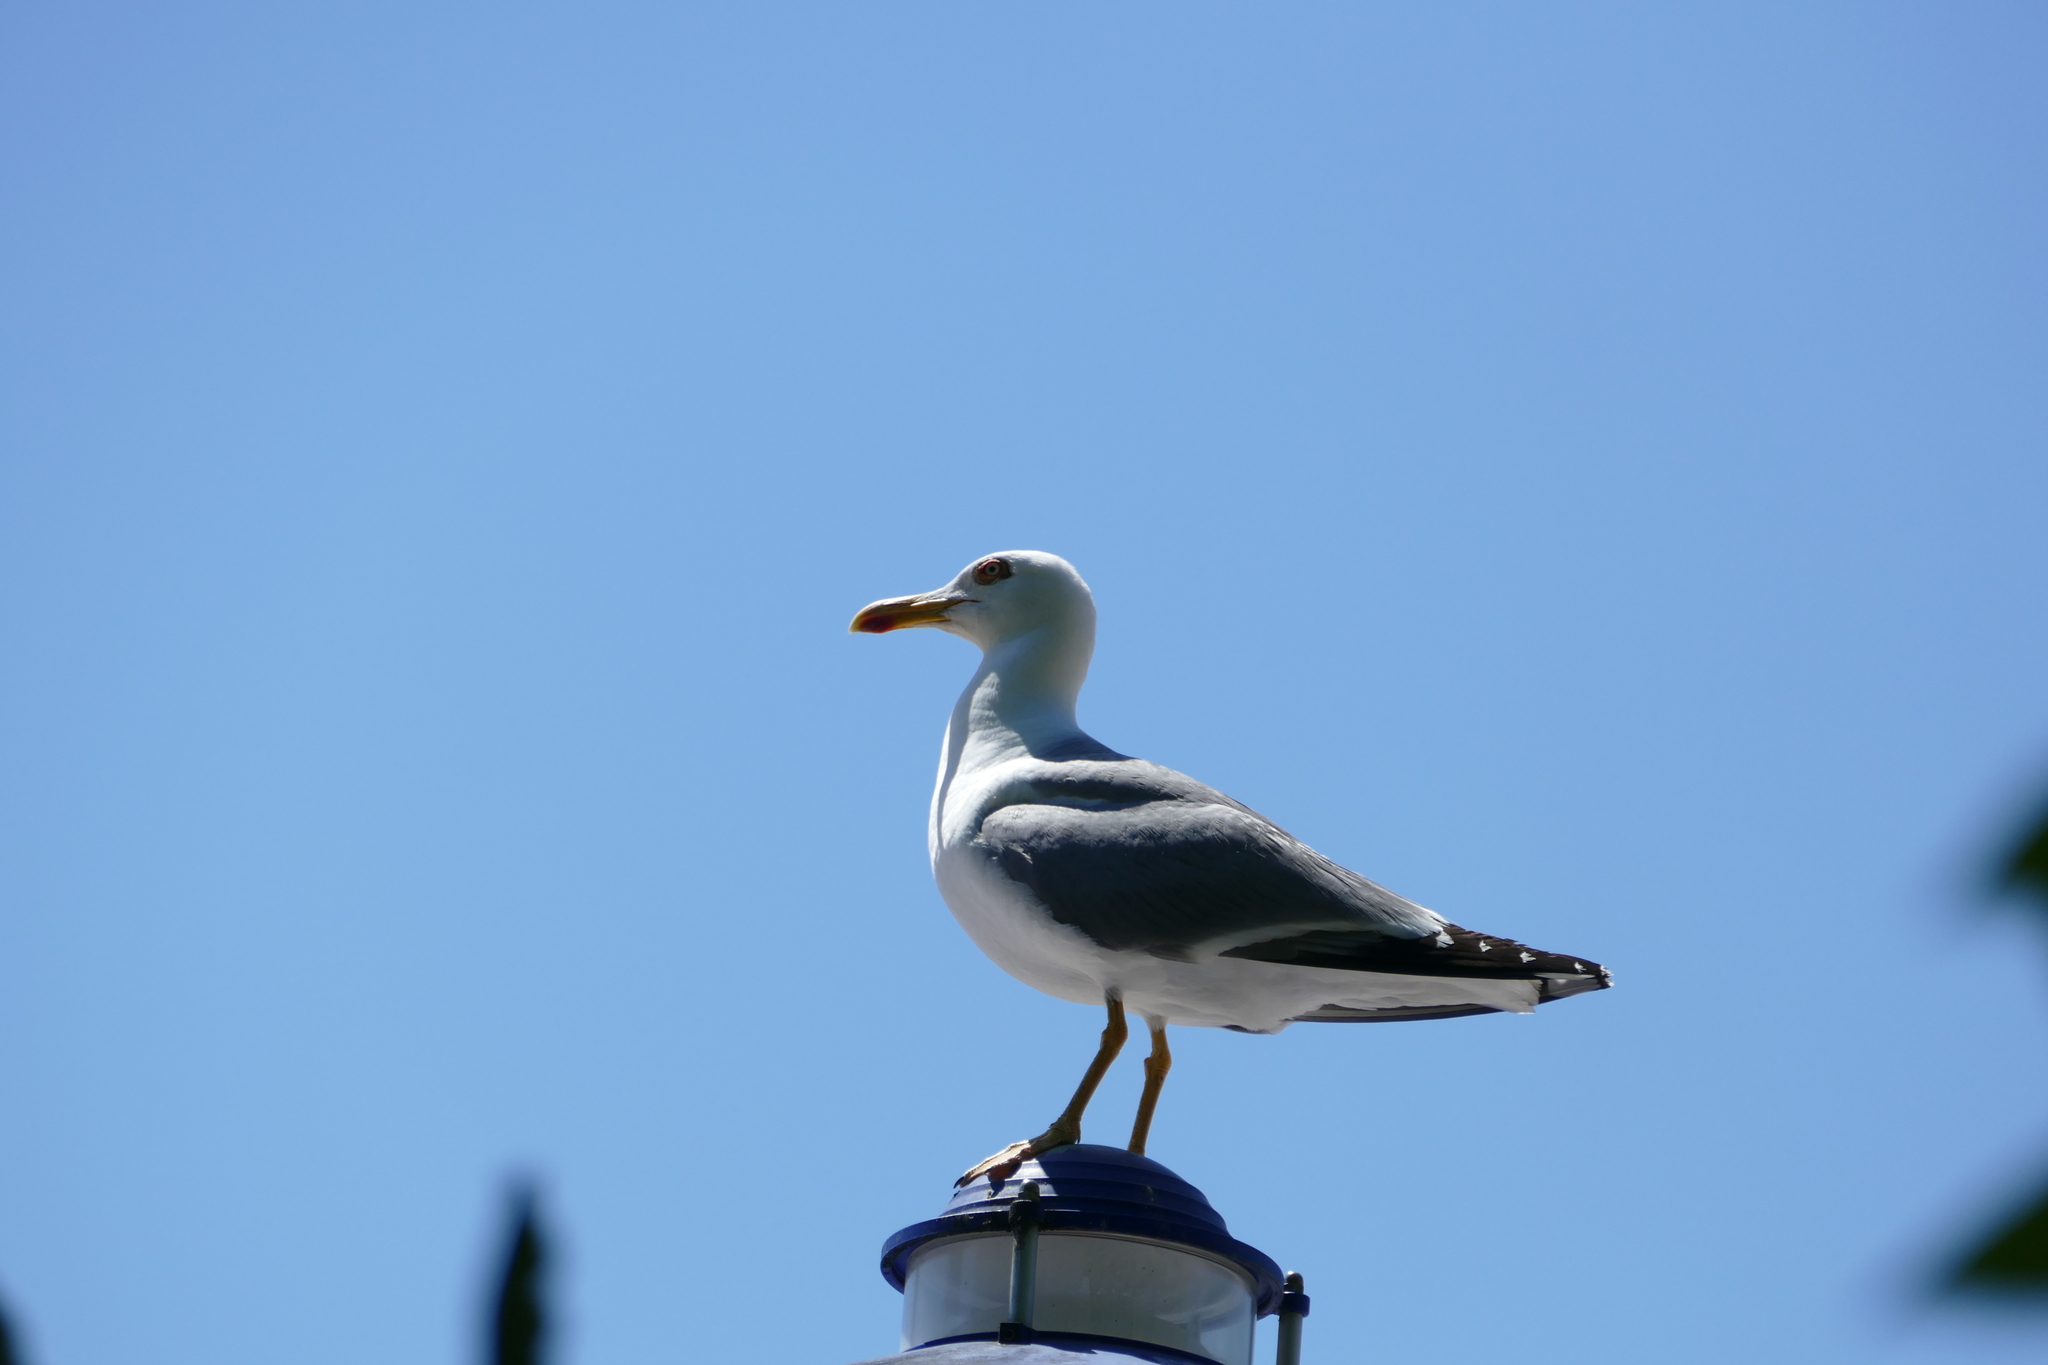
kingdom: Animalia
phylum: Chordata
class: Aves
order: Charadriiformes
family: Laridae
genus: Larus
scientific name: Larus michahellis
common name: Yellow-legged gull
